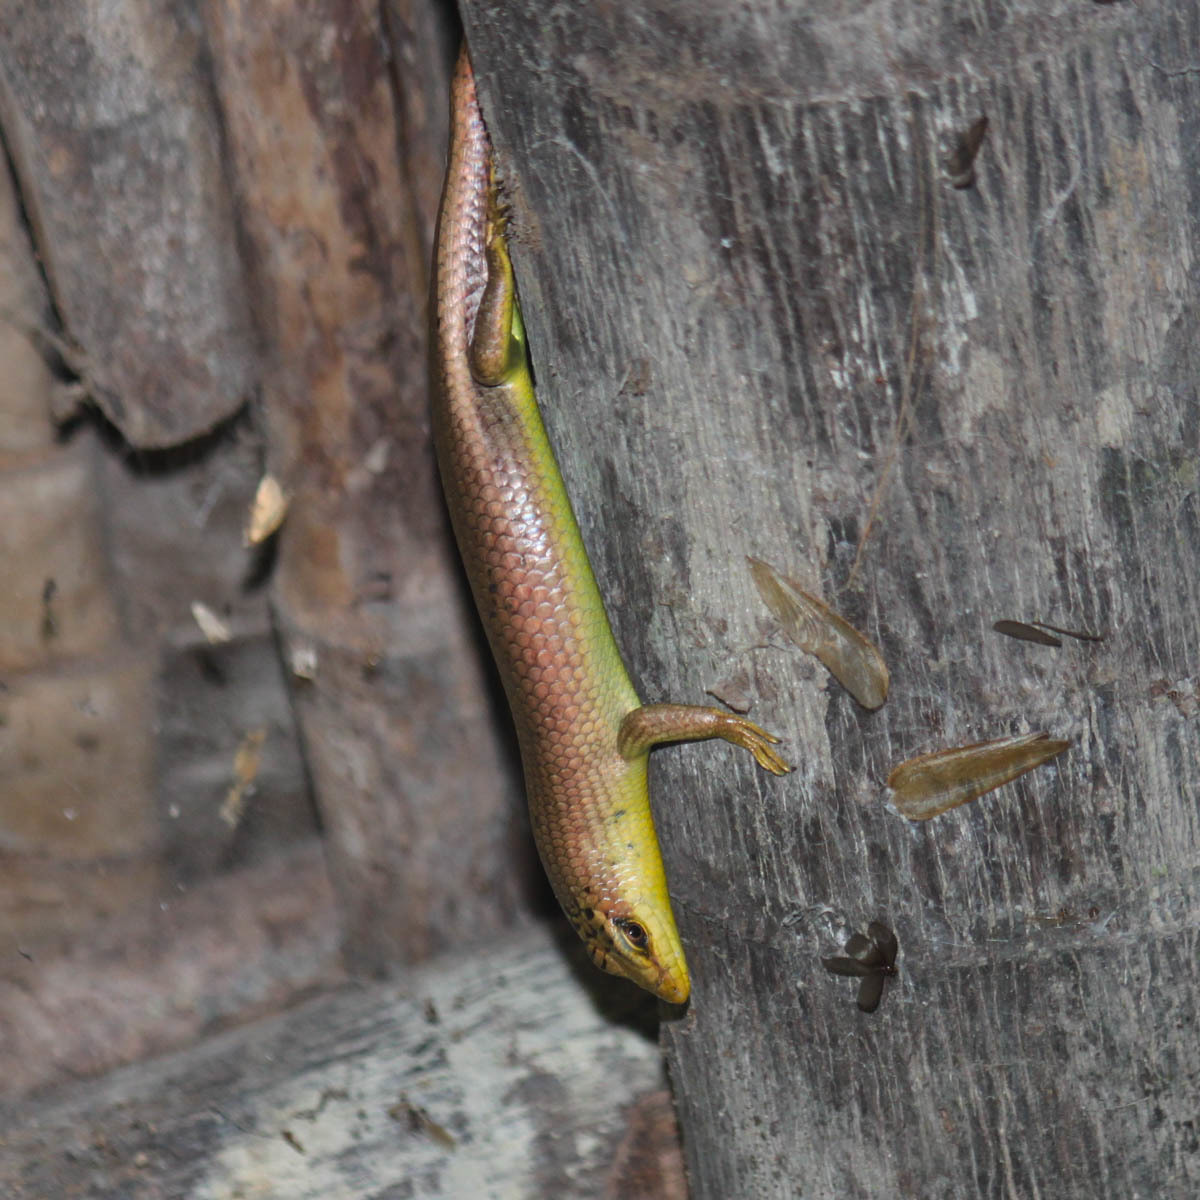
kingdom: Animalia
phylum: Chordata
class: Squamata
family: Scincidae
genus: Dasia
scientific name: Dasia olivacea
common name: Olive dasia
